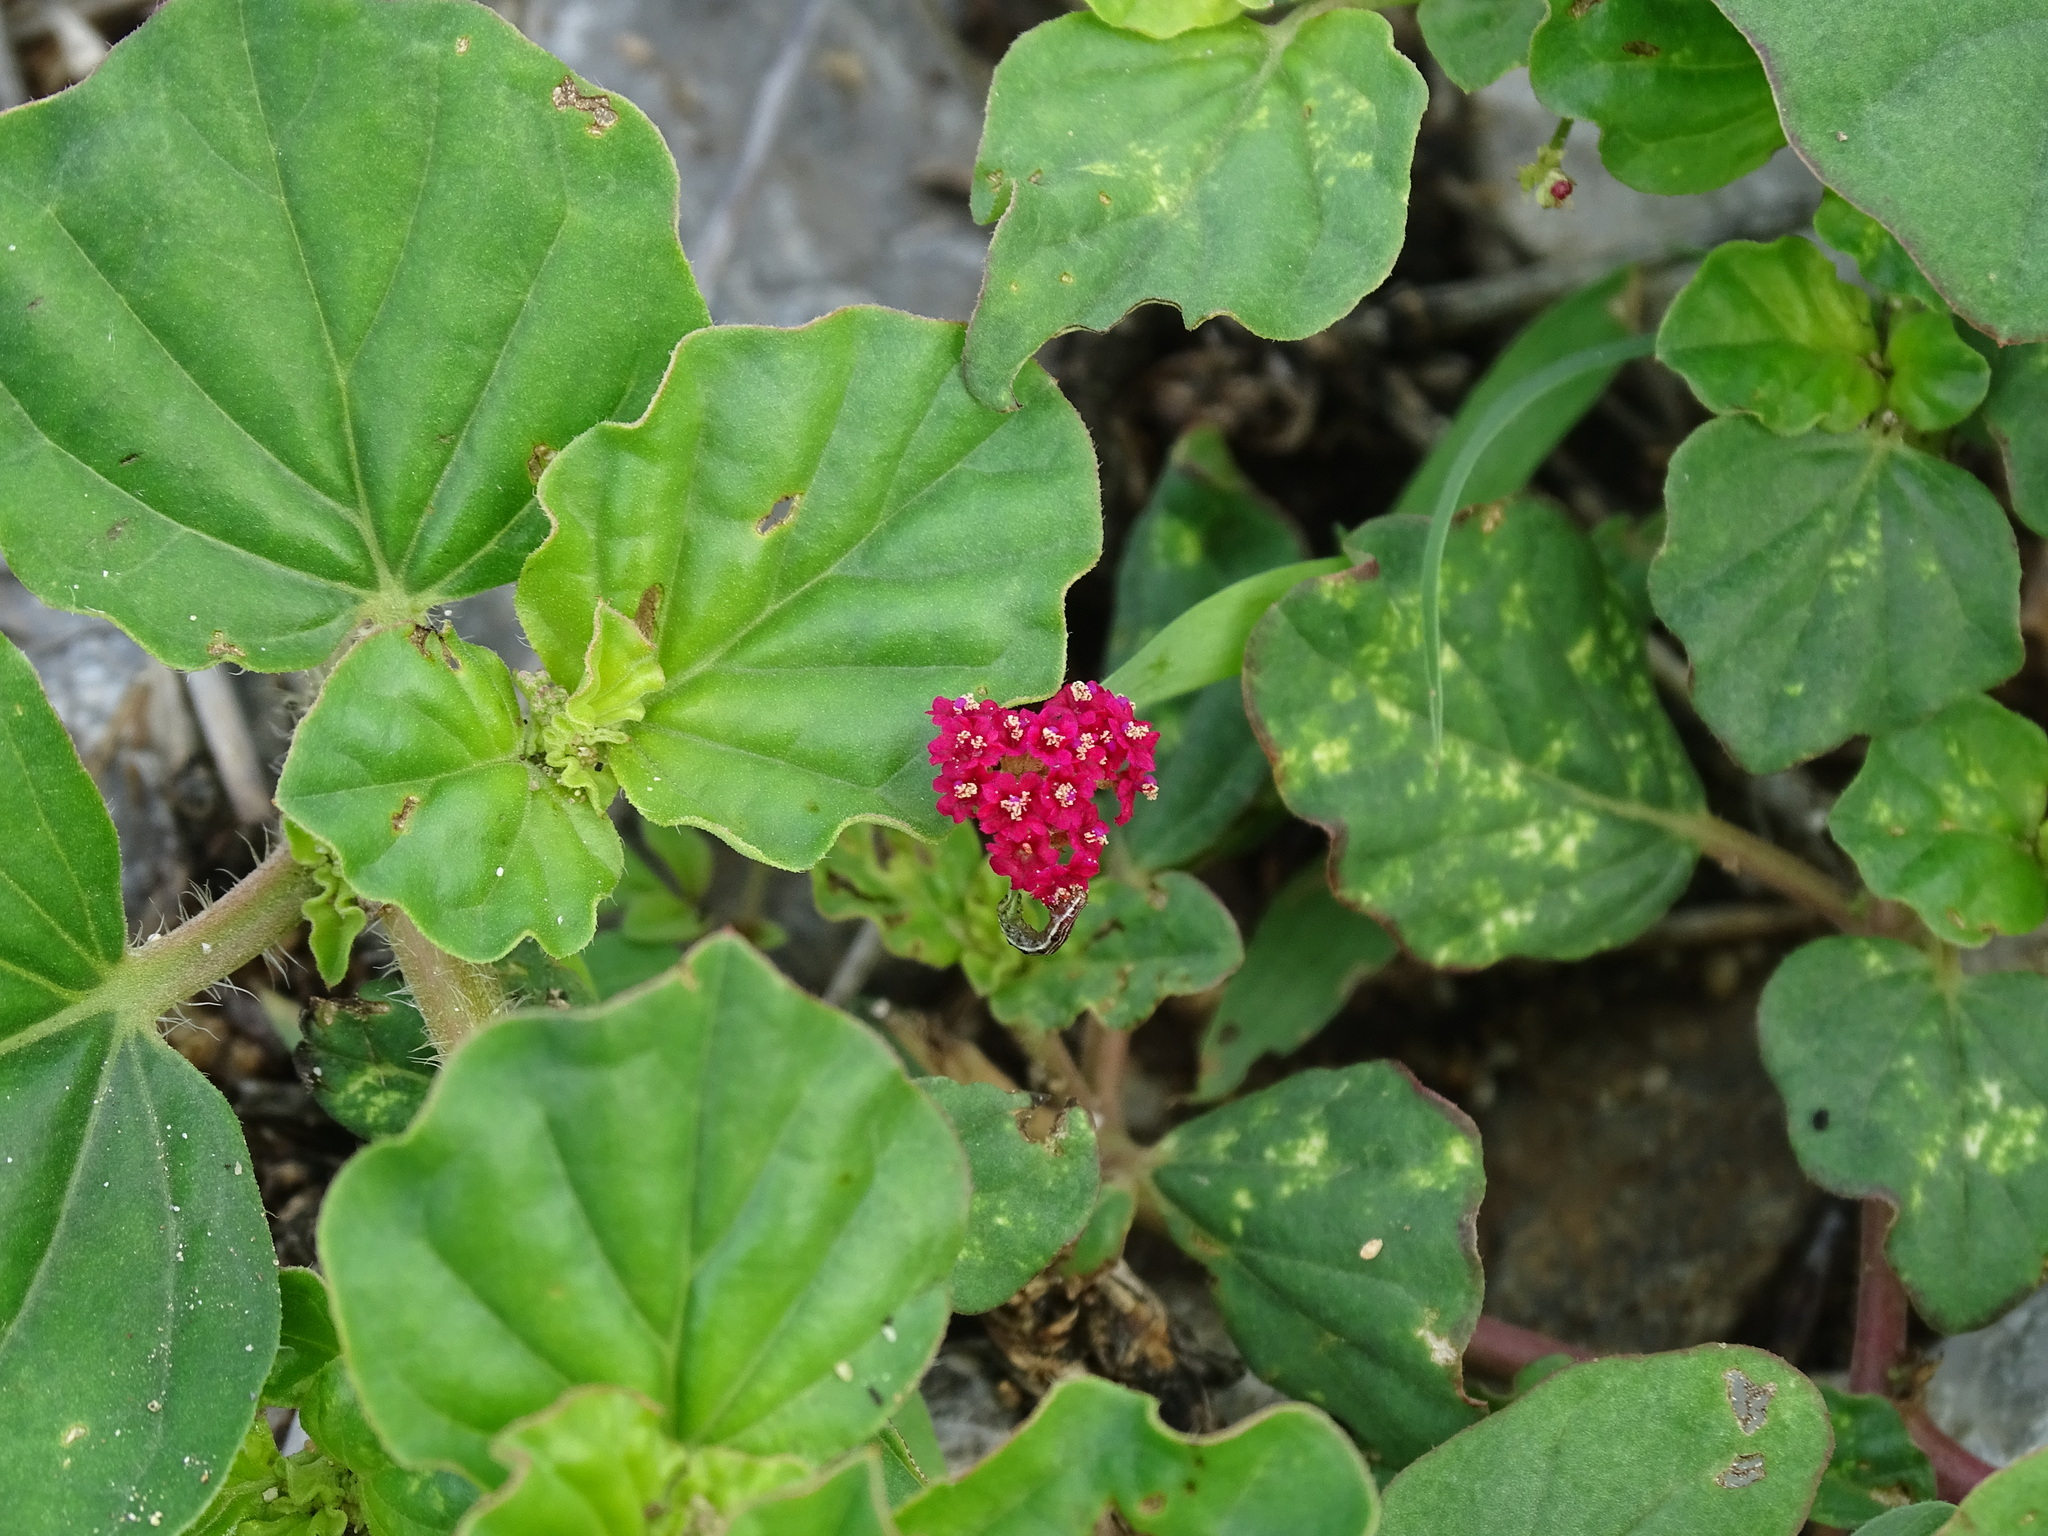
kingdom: Plantae
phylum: Tracheophyta
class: Magnoliopsida
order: Caryophyllales
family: Nyctaginaceae
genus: Boerhavia
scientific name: Boerhavia coccinea
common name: Scarlet spiderling
